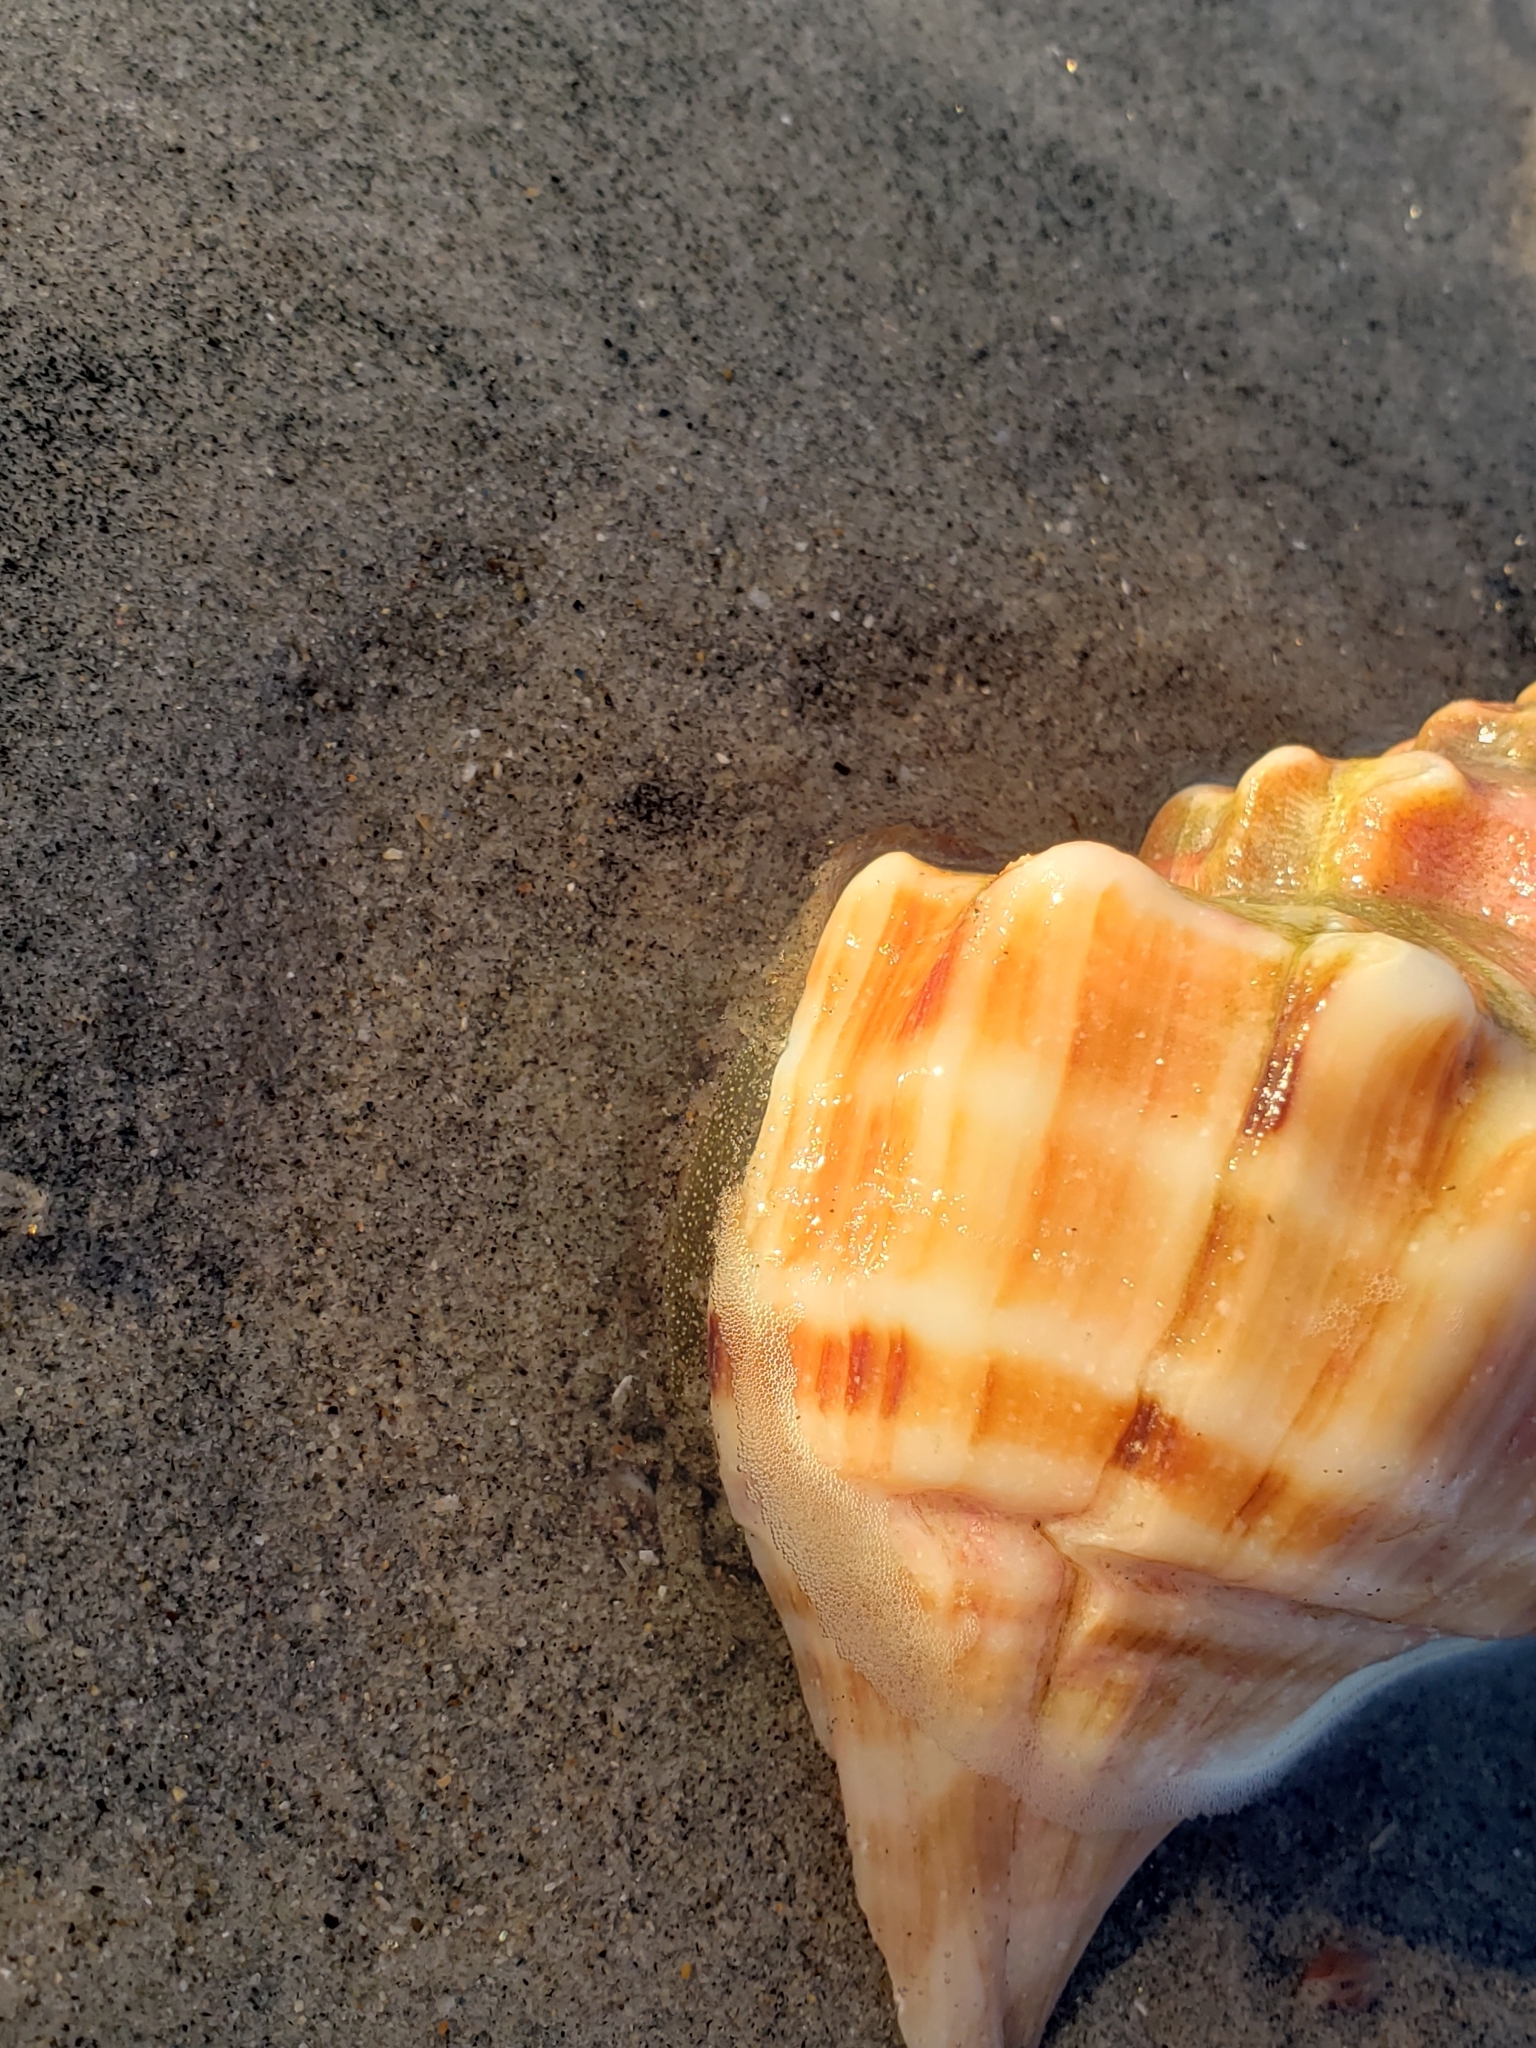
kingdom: Animalia
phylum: Mollusca
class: Gastropoda
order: Neogastropoda
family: Muricidae
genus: Forreria
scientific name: Forreria belcheri
